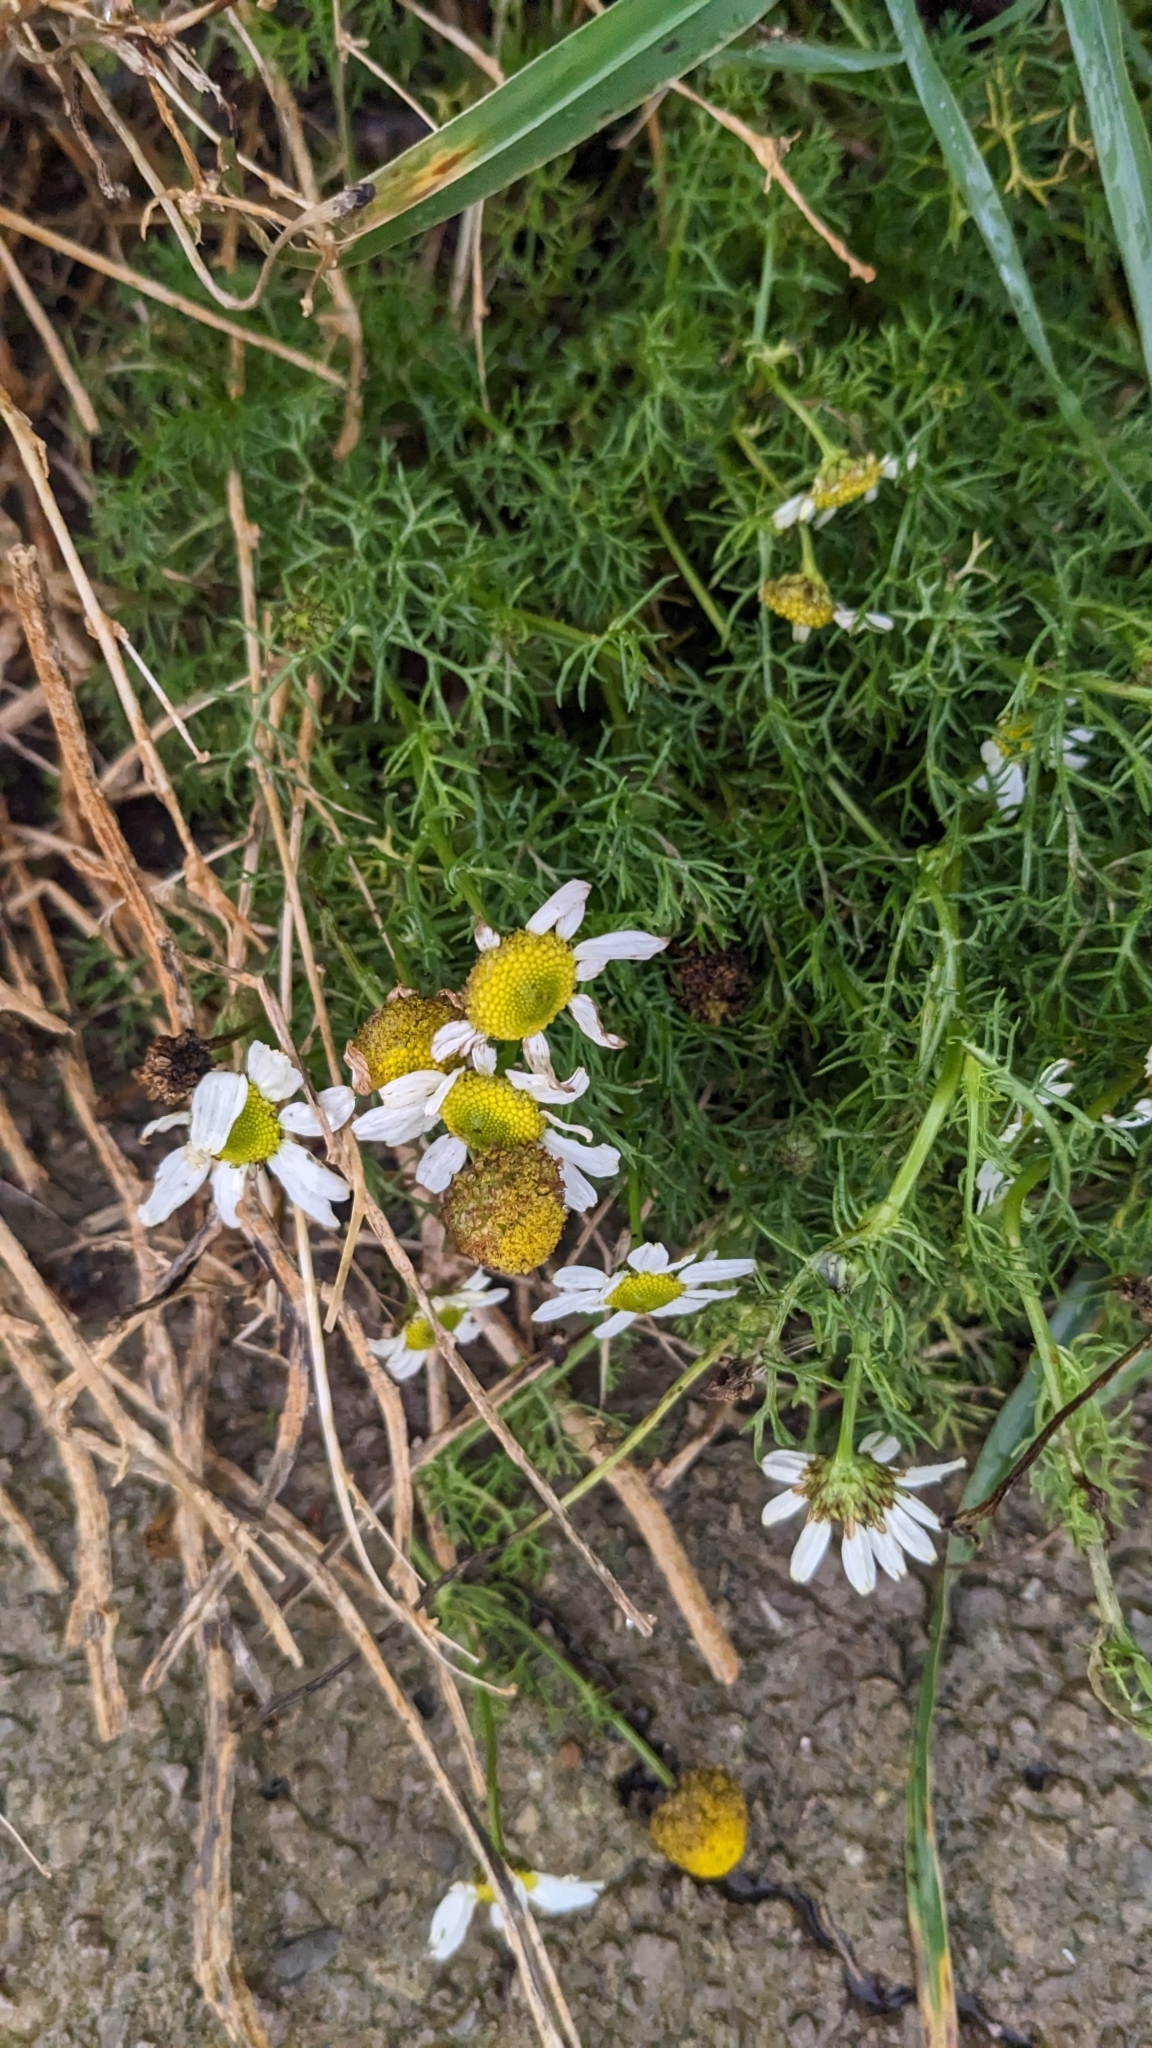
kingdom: Plantae
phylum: Tracheophyta
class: Magnoliopsida
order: Asterales
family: Asteraceae
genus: Tripleurospermum
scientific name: Tripleurospermum maritimum
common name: Sea mayweed
